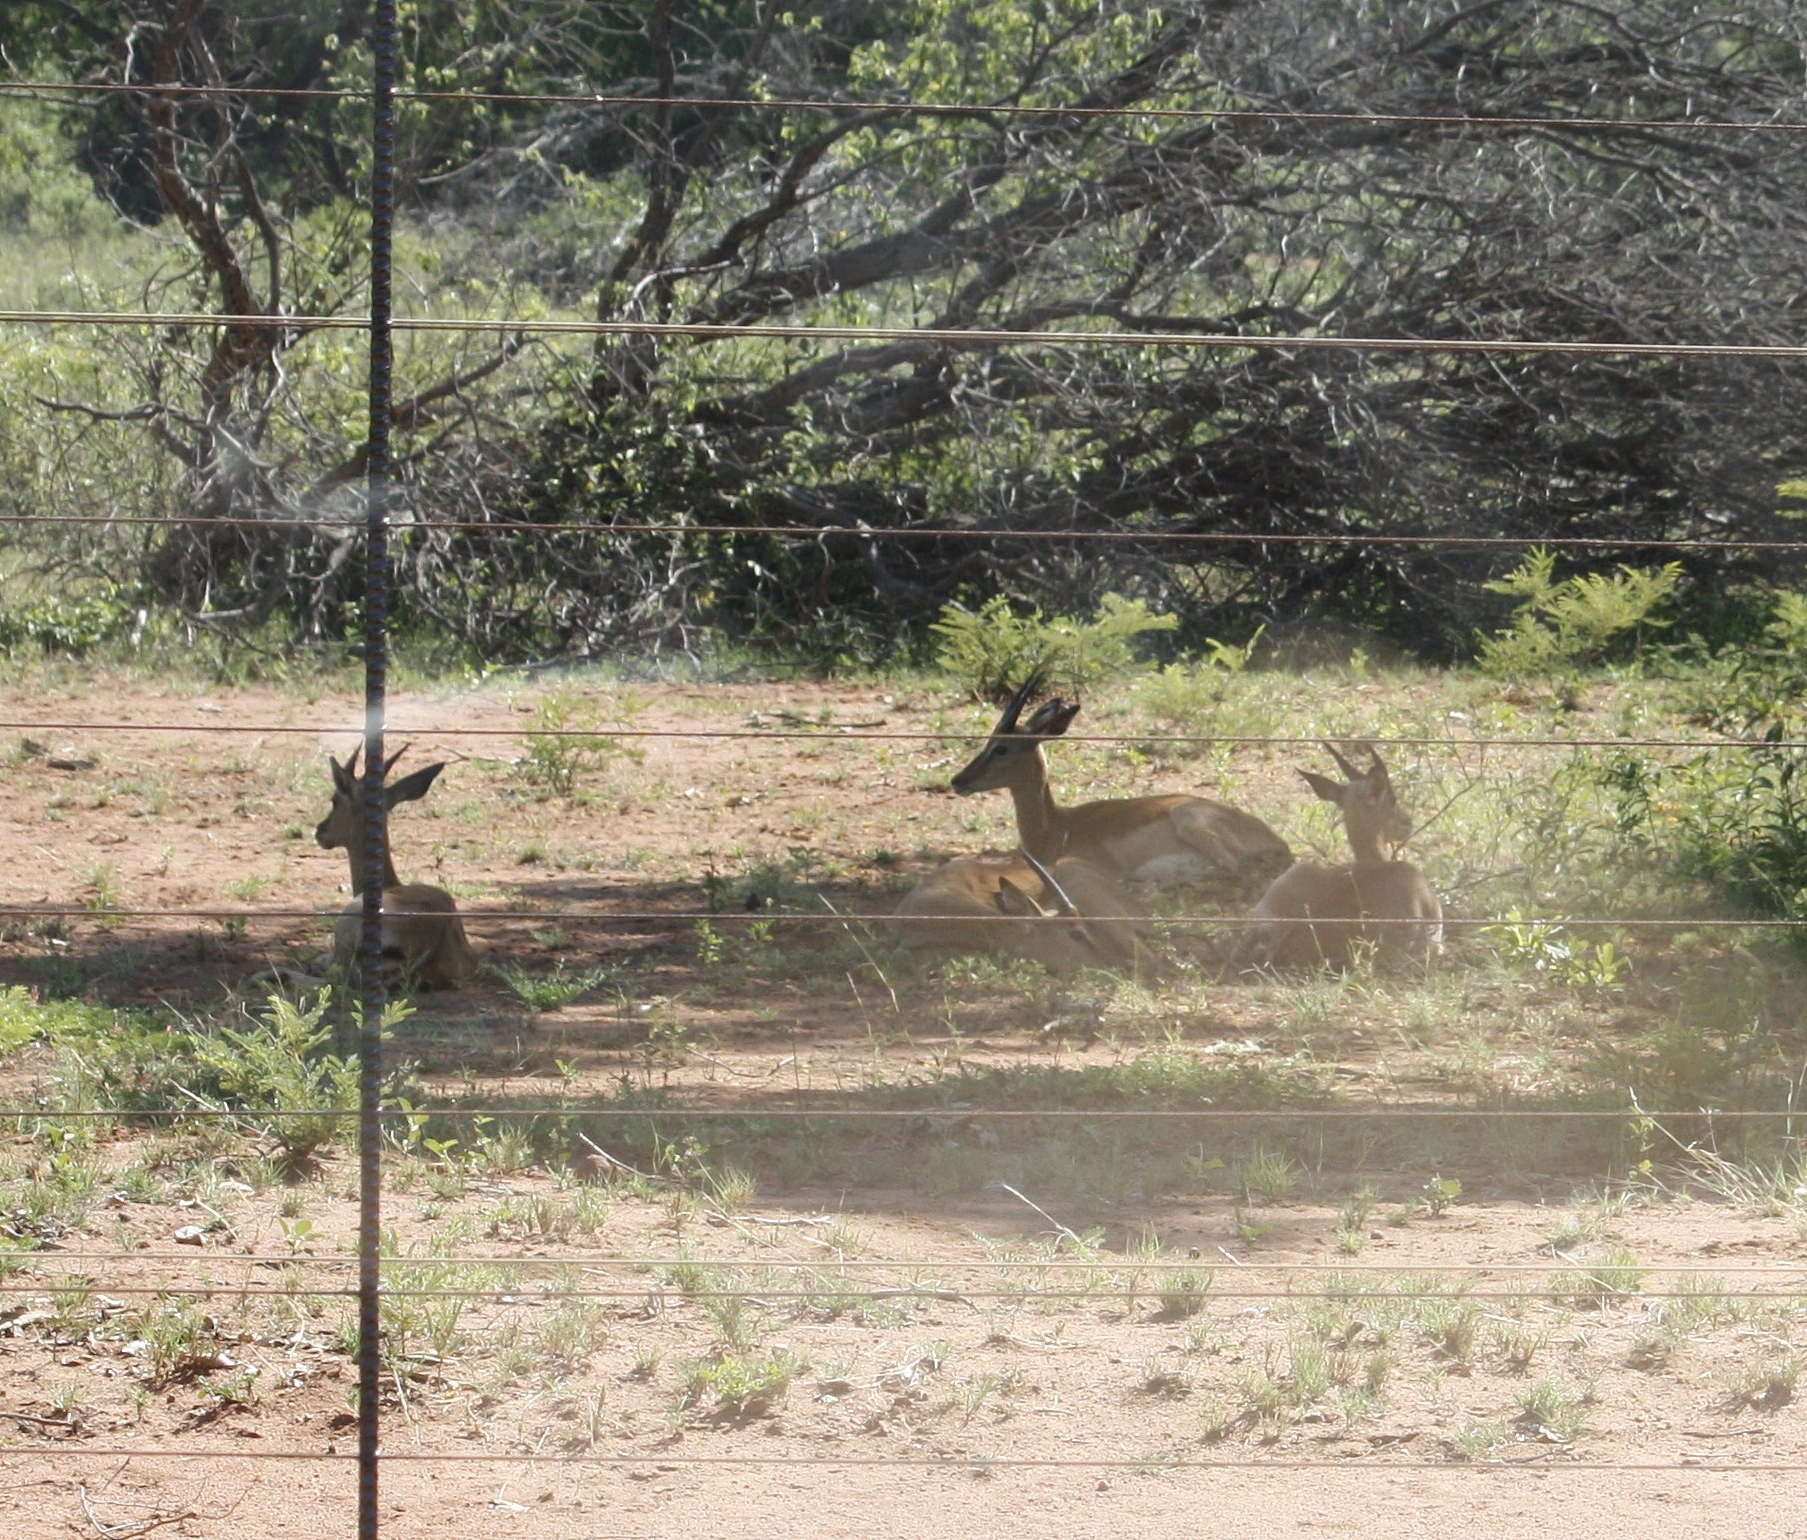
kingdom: Animalia
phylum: Chordata
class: Mammalia
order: Artiodactyla
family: Bovidae
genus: Aepyceros
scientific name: Aepyceros melampus
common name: Impala
